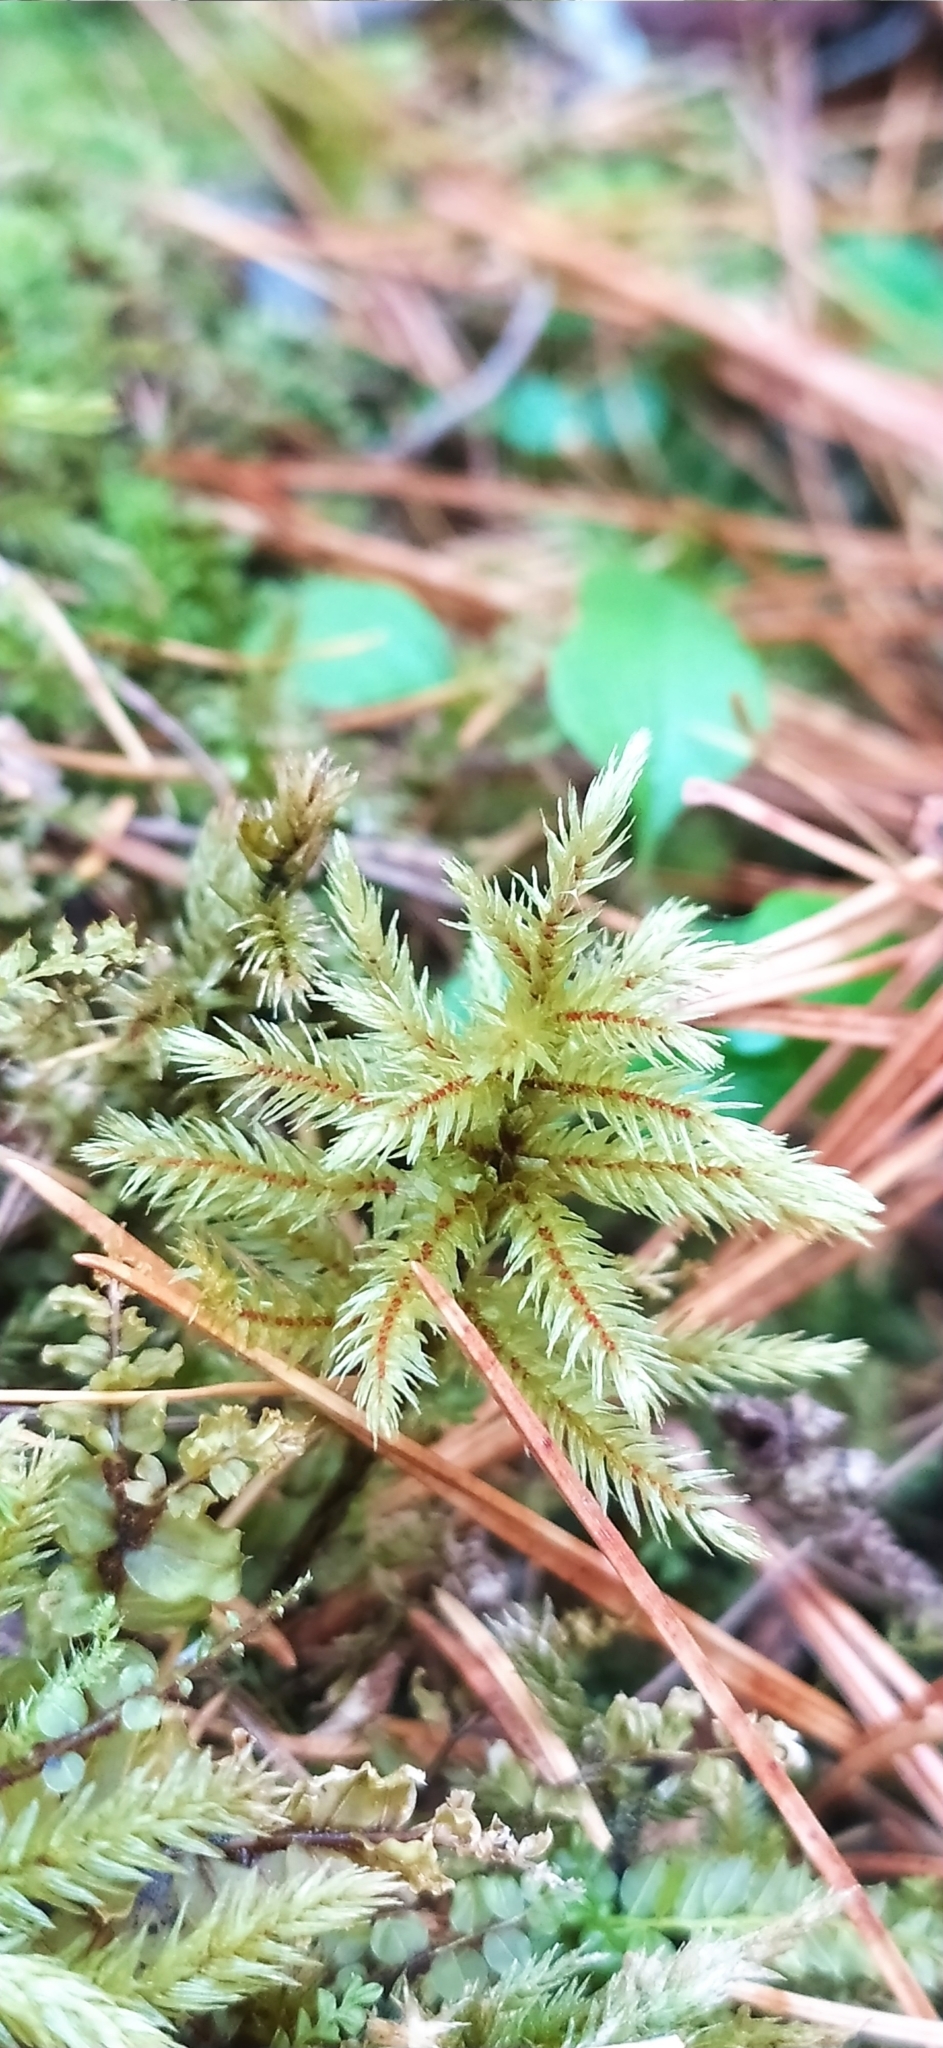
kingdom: Plantae
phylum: Bryophyta
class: Bryopsida
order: Hypnales
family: Climaciaceae
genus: Climacium
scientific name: Climacium dendroides
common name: Northern tree moss
